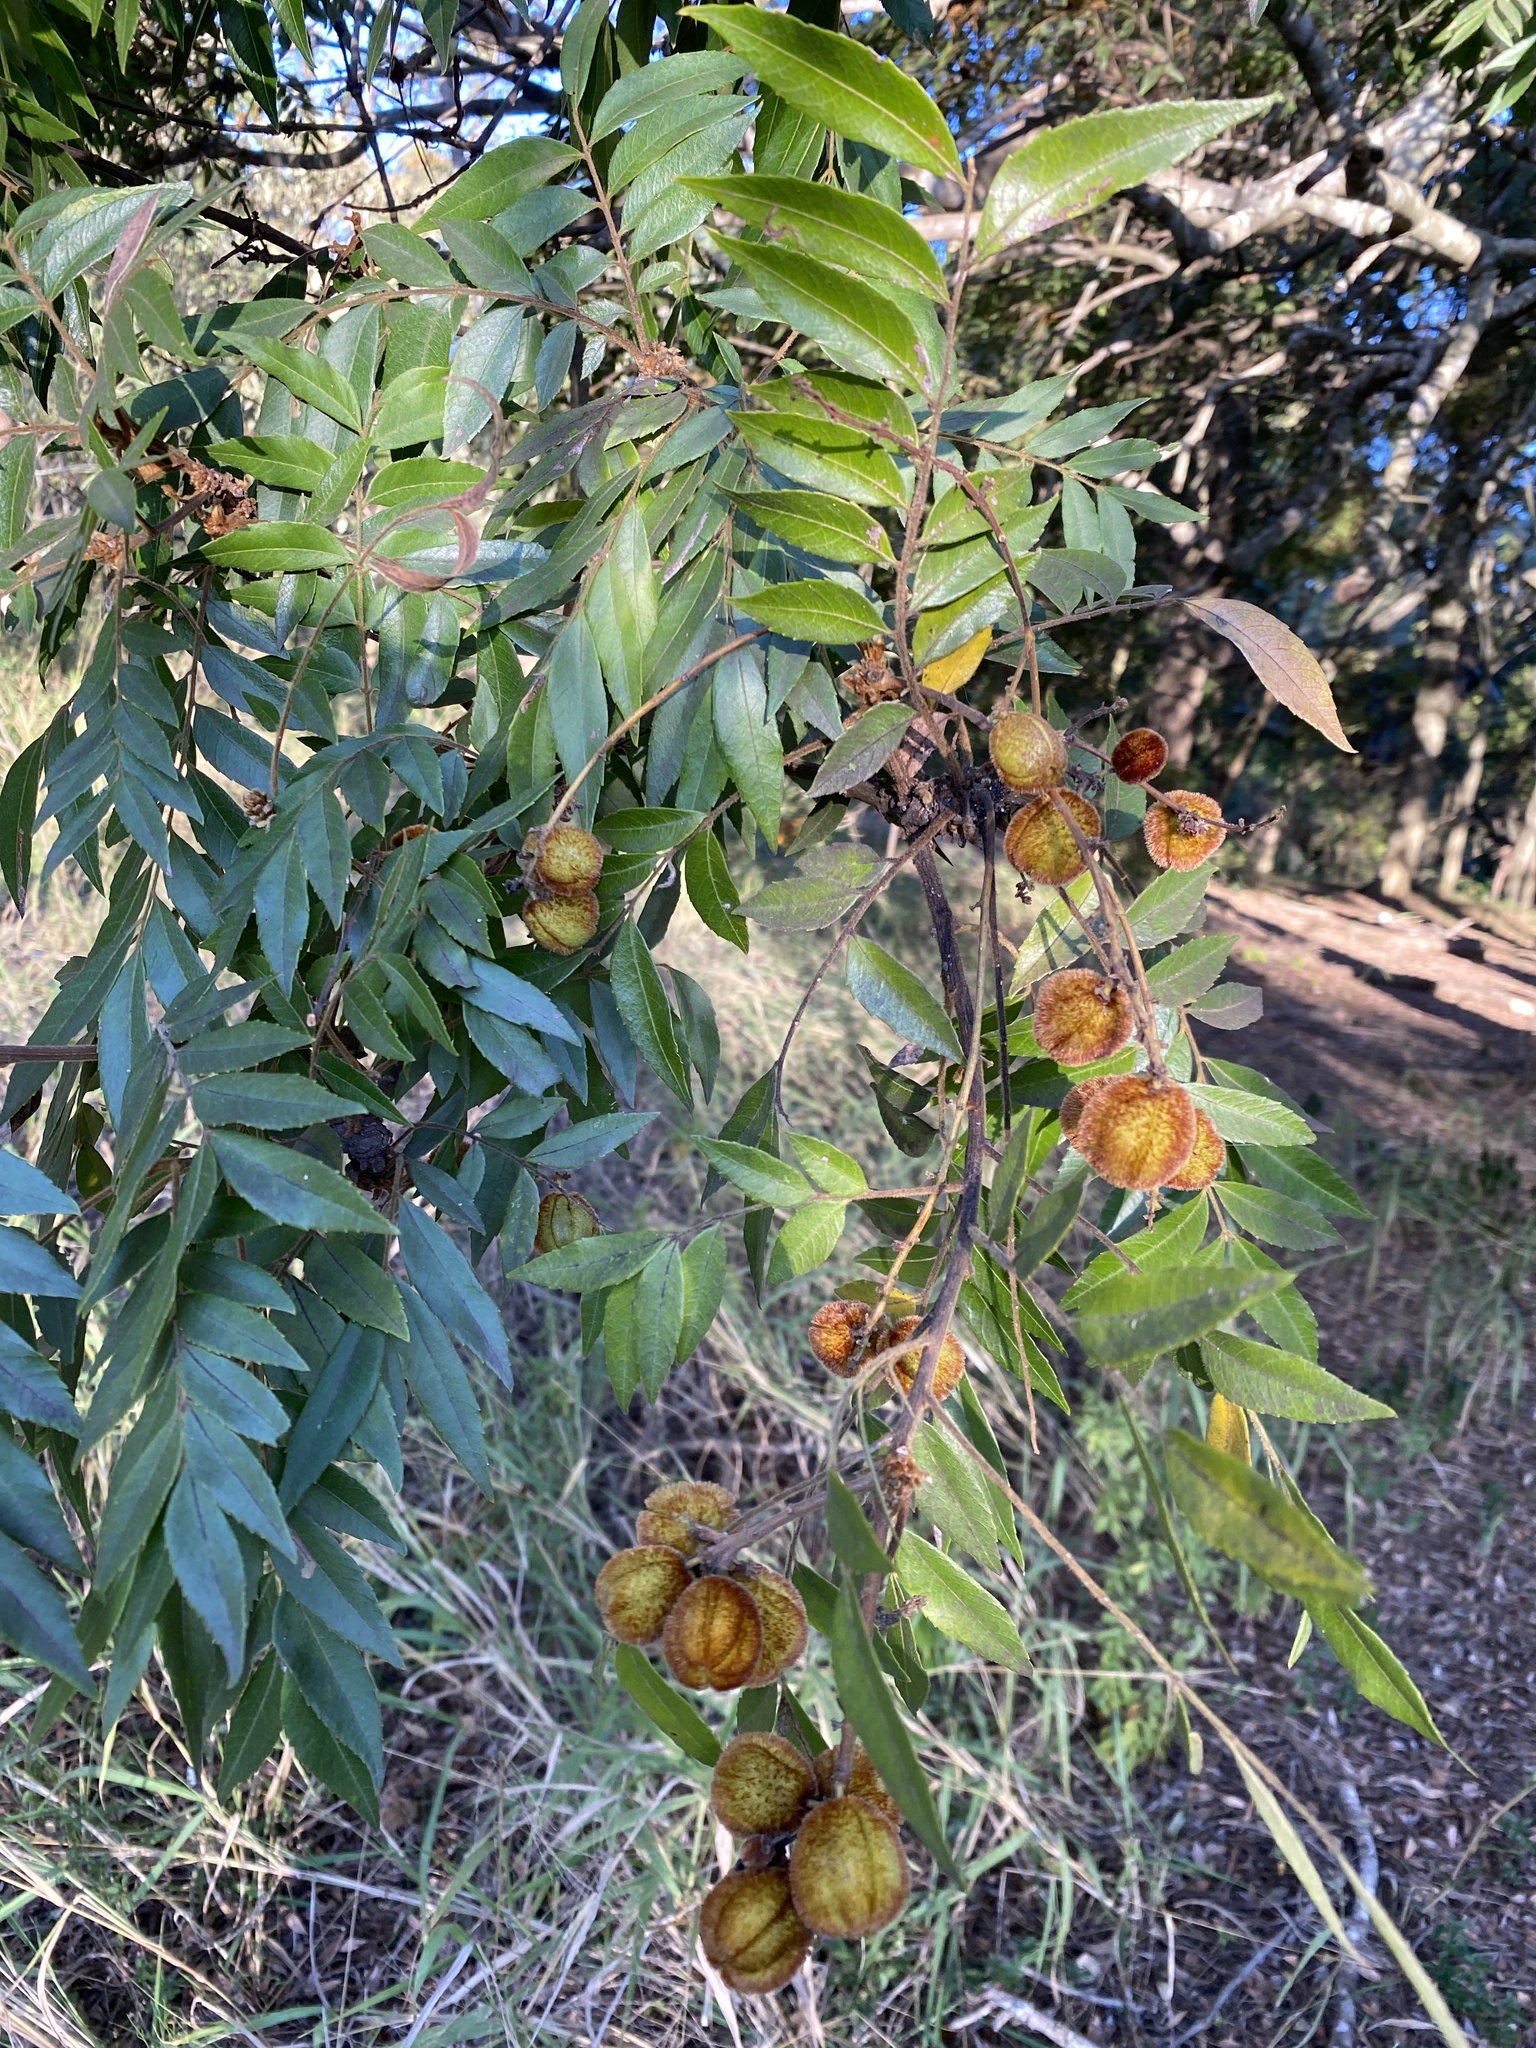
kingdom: Plantae
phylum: Tracheophyta
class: Magnoliopsida
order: Sapindales
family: Sapindaceae
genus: Jagera
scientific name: Jagera pseudorhus
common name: Fern-leaf-tamarind
